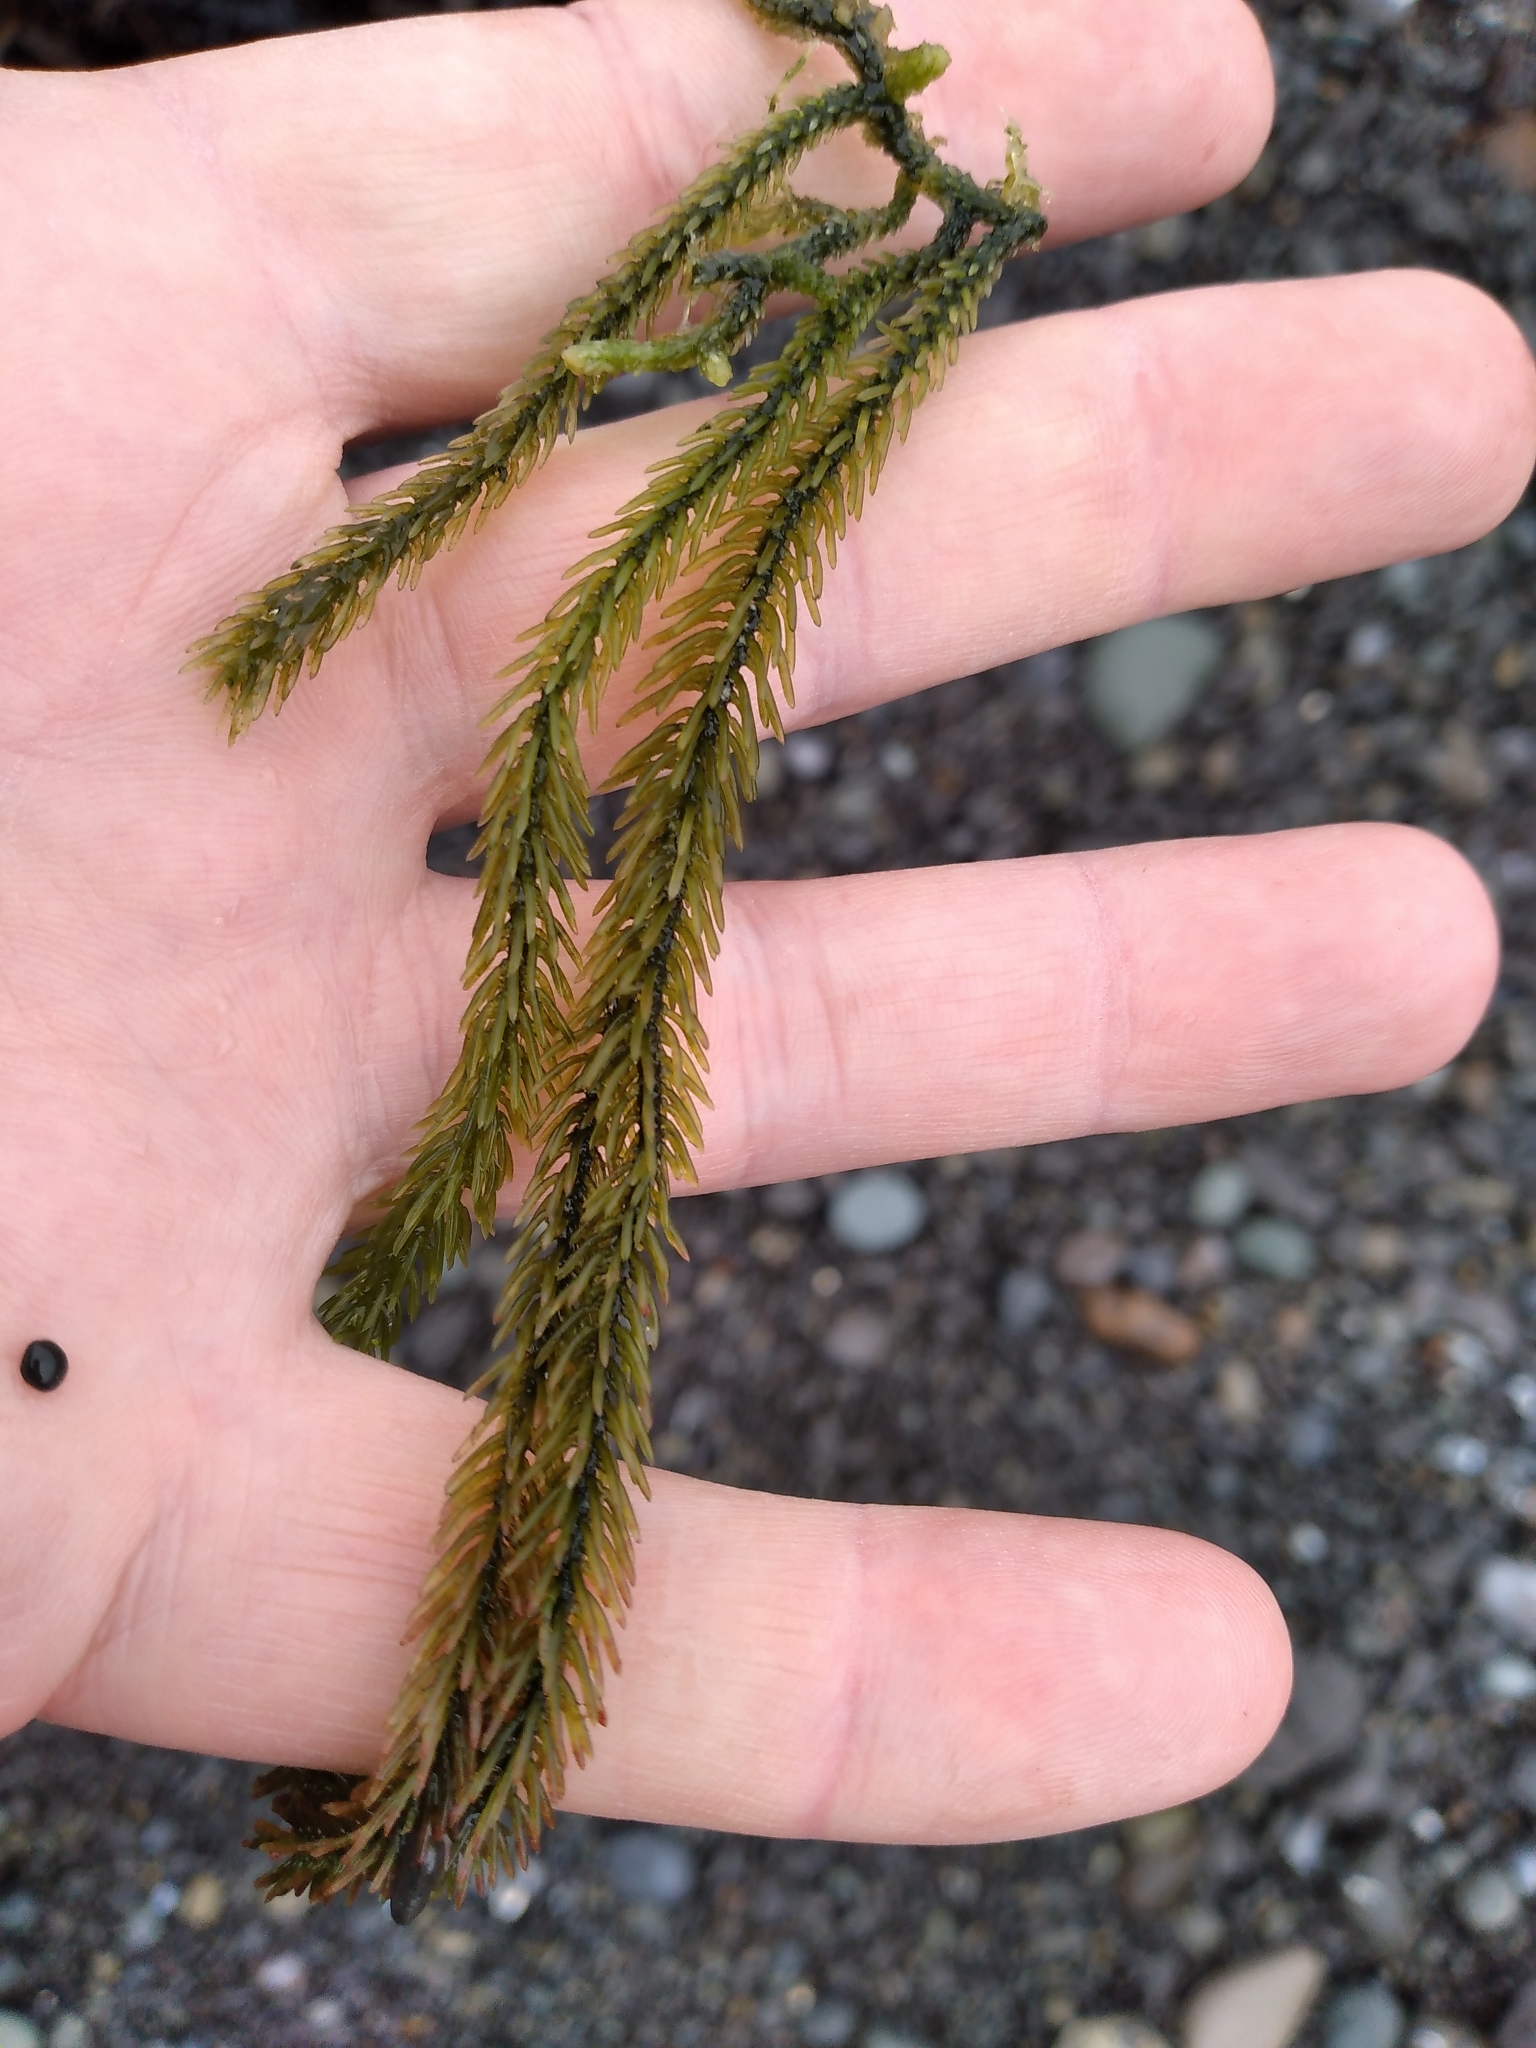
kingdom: Plantae
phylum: Chlorophyta
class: Ulvophyceae
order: Bryopsidales
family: Caulerpaceae
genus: Caulerpa
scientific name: Caulerpa brownii
